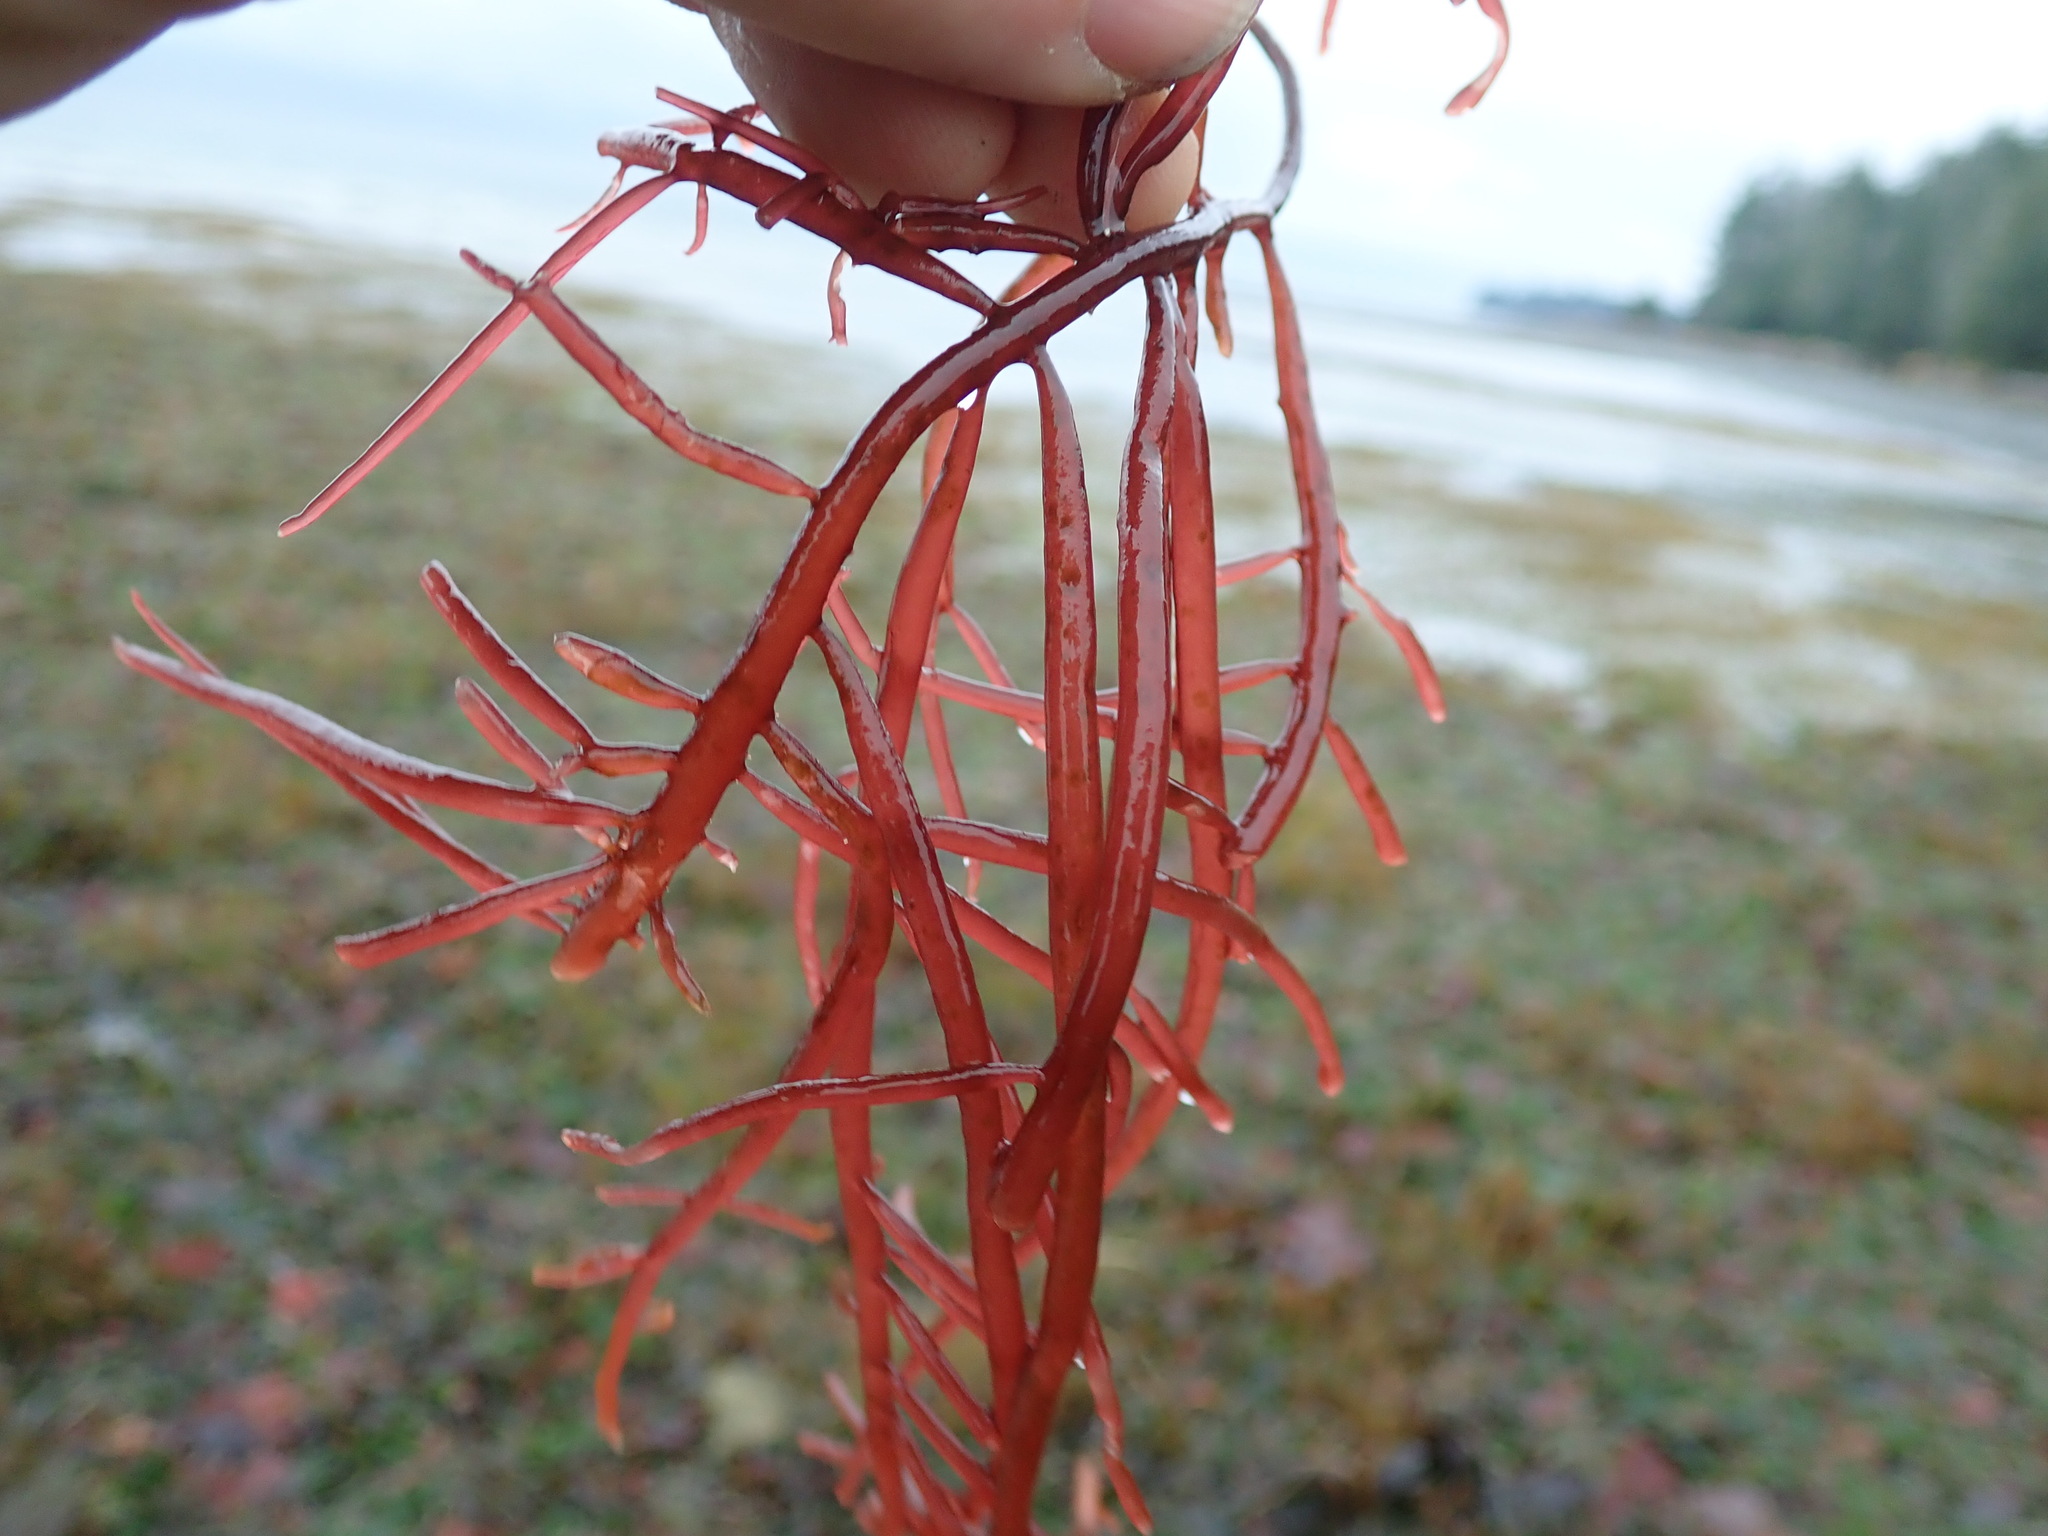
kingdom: Plantae
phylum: Rhodophyta
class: Florideophyceae
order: Gigartinales
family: Solieriaceae
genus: Sarcodiotheca
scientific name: Sarcodiotheca gaudichaudii
